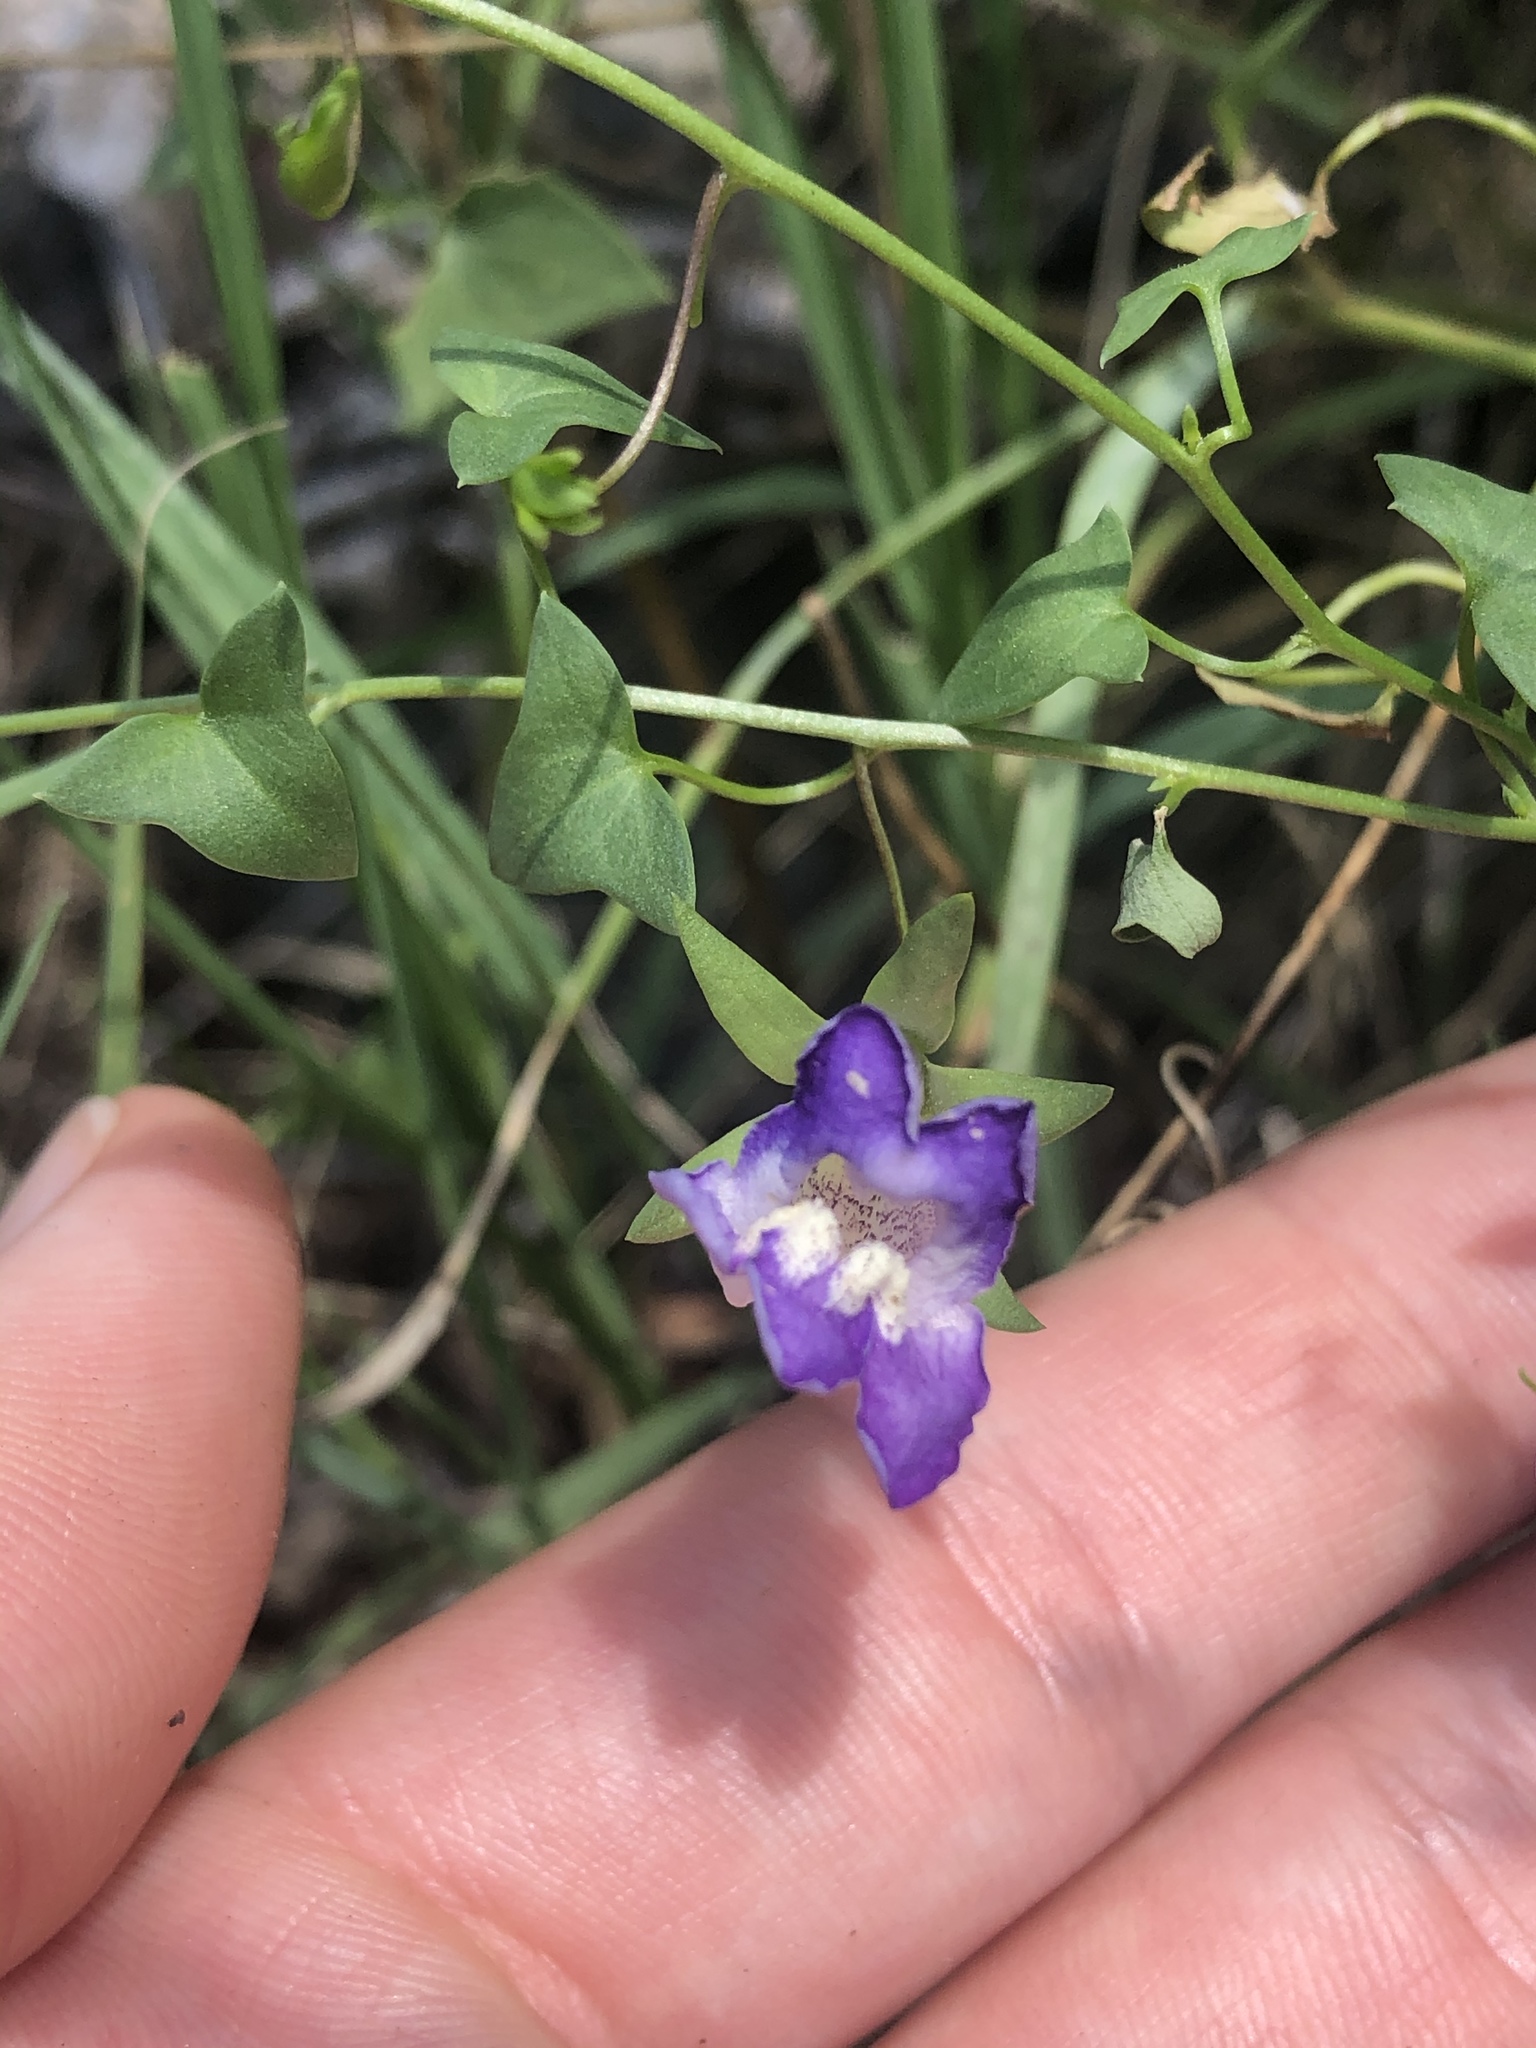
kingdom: Plantae
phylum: Tracheophyta
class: Magnoliopsida
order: Lamiales
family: Plantaginaceae
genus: Maurandella
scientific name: Maurandella antirrhiniflora
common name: Violet twining-snapdragon
